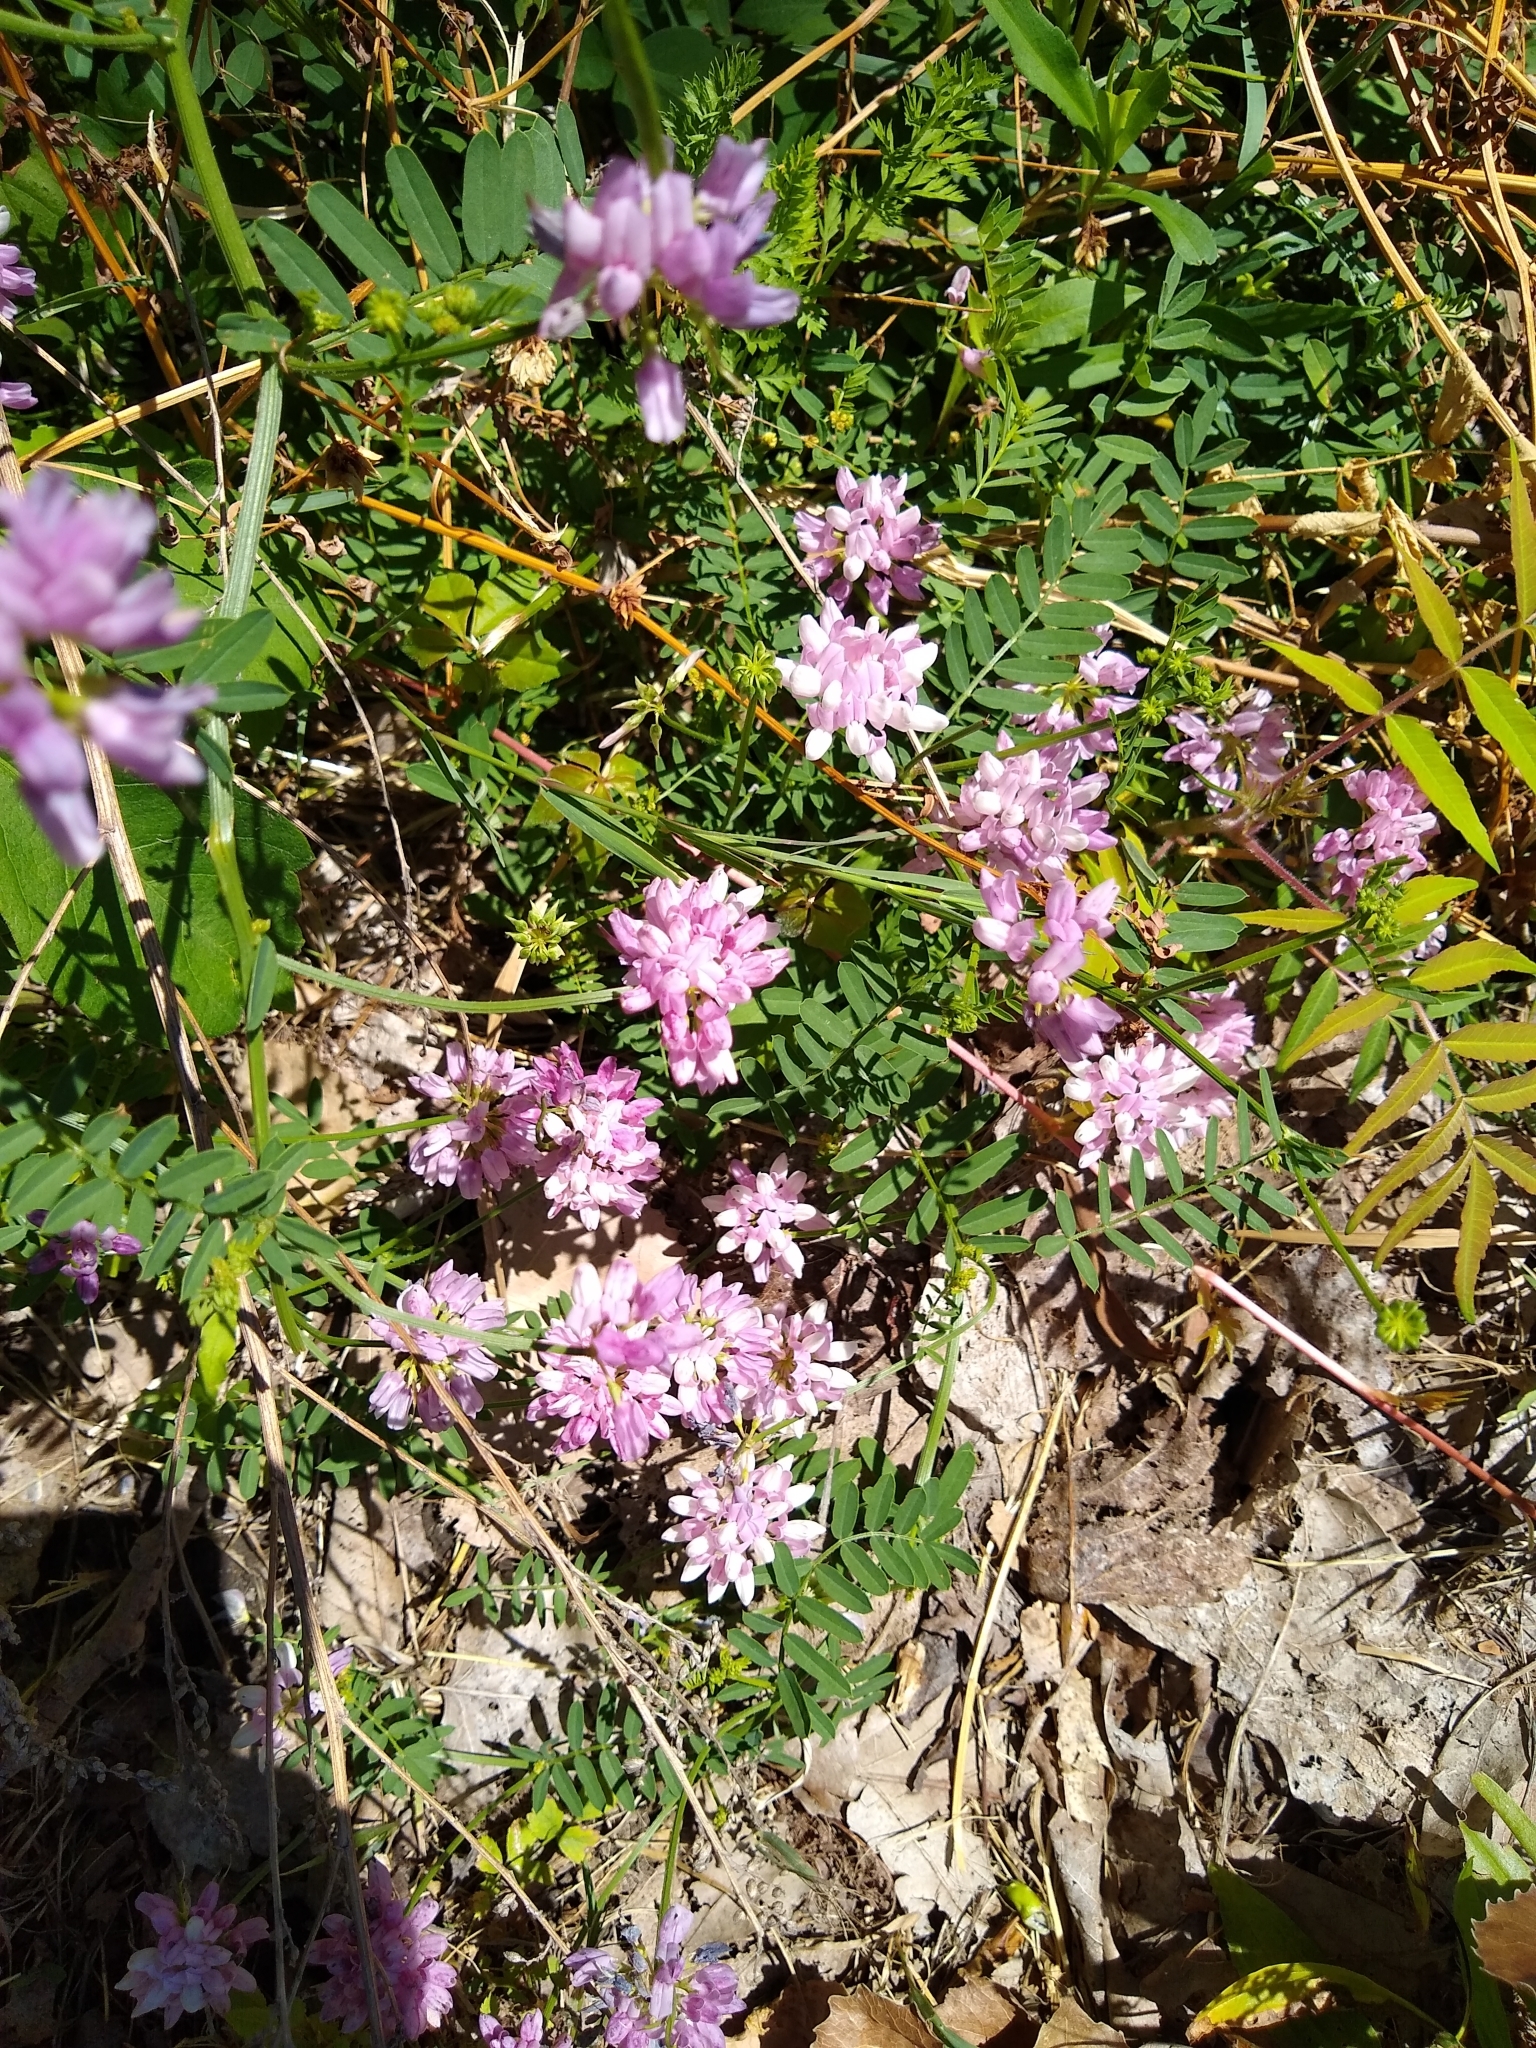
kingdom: Plantae
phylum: Tracheophyta
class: Magnoliopsida
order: Fabales
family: Fabaceae
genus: Coronilla
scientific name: Coronilla varia
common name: Crownvetch
